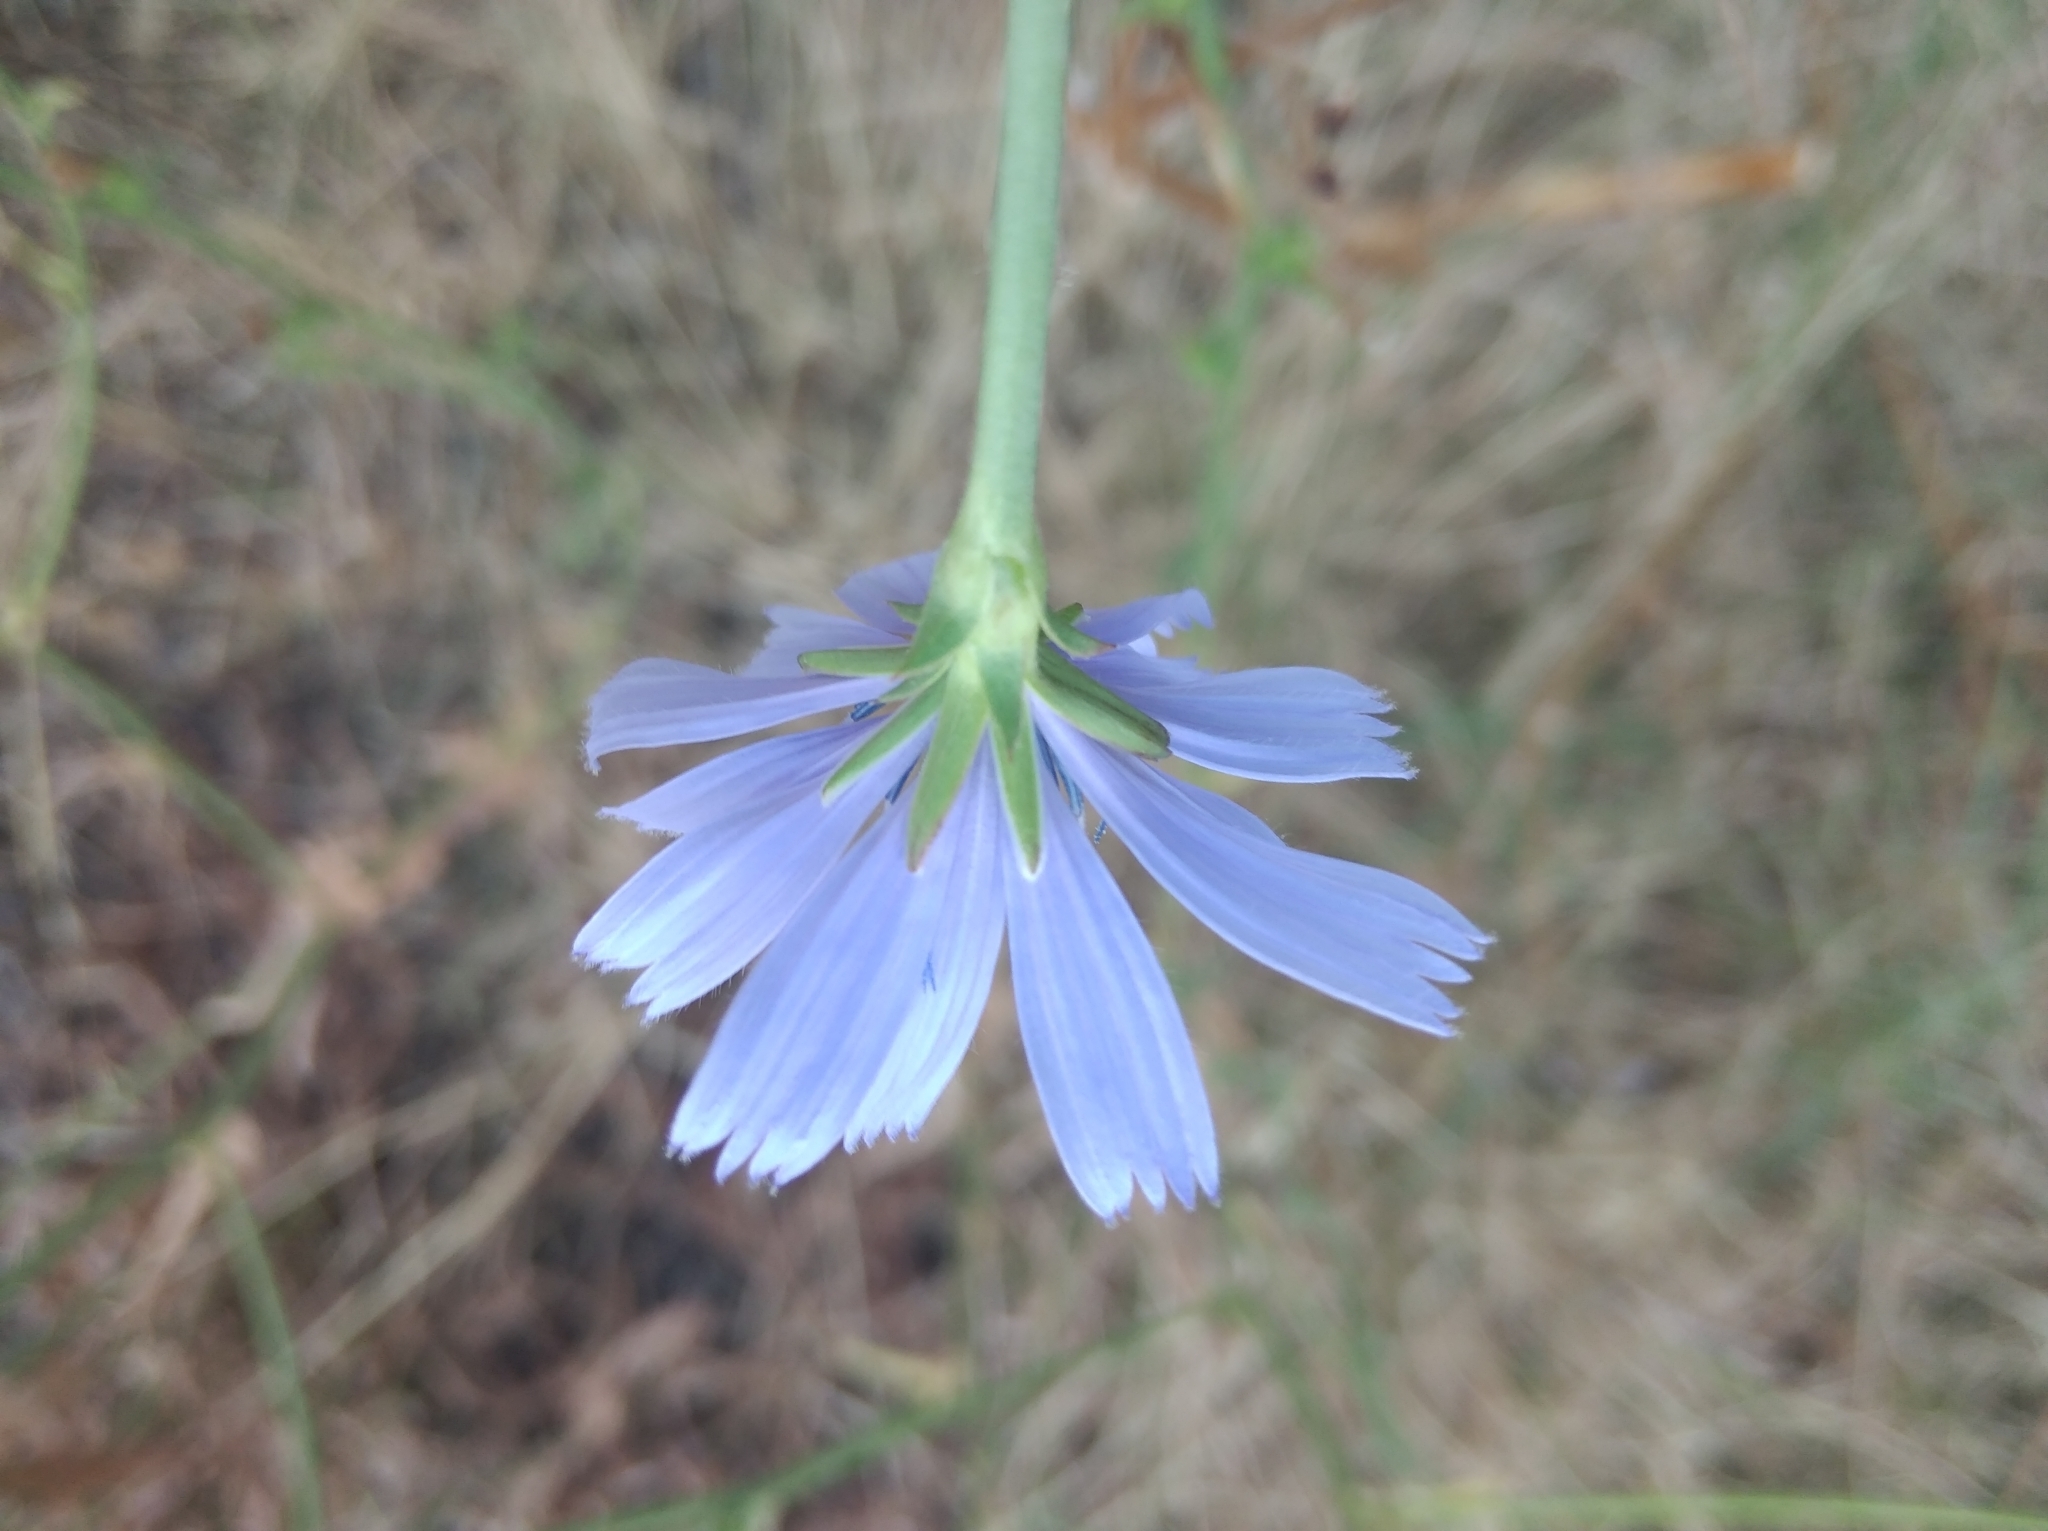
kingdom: Plantae
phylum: Tracheophyta
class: Magnoliopsida
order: Asterales
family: Asteraceae
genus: Cichorium
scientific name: Cichorium intybus
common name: Chicory
